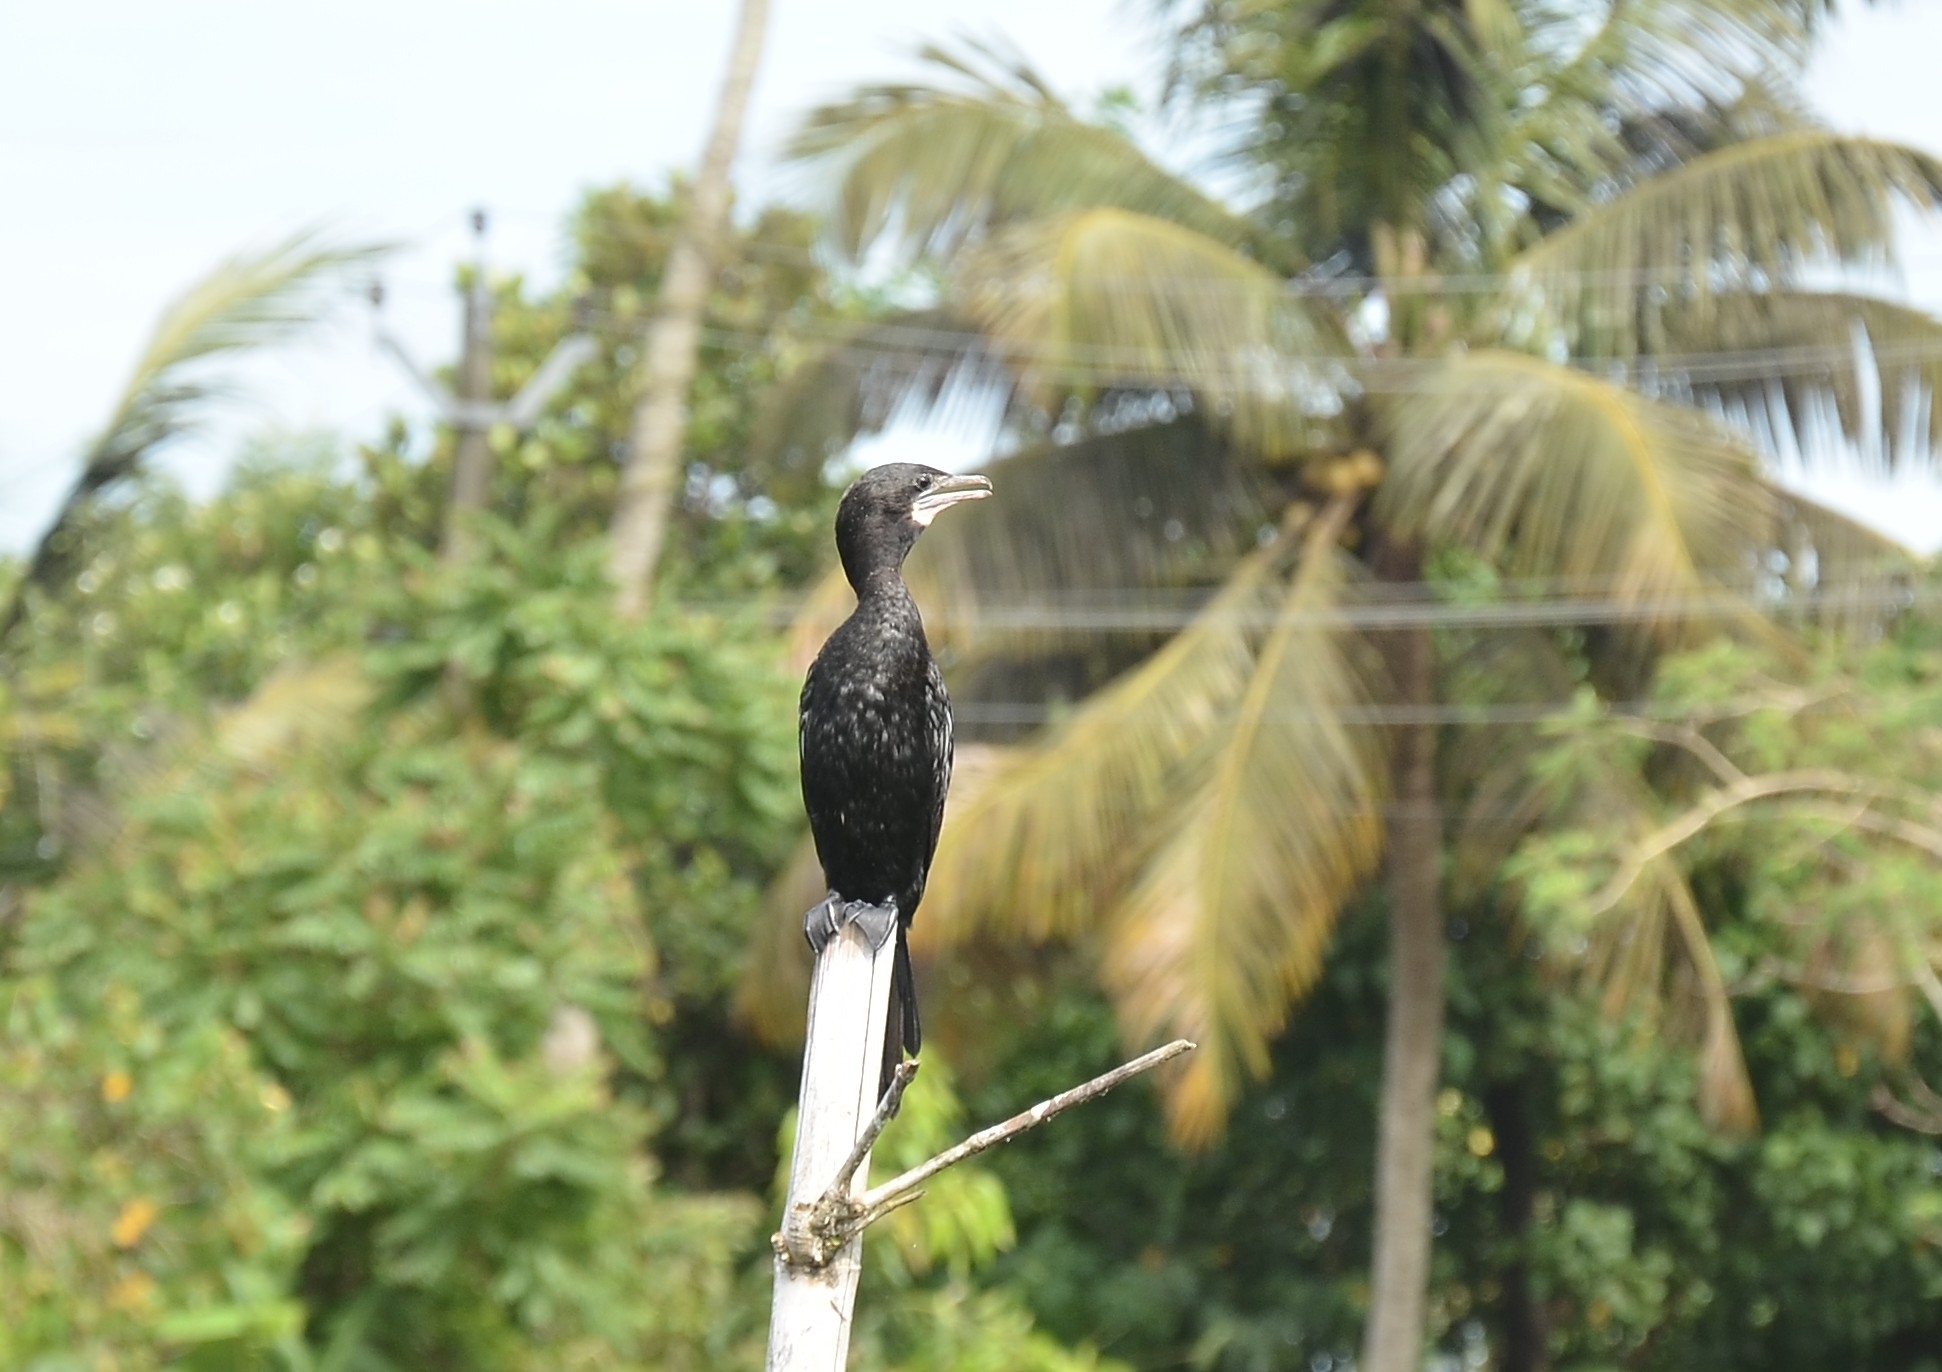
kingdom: Animalia
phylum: Chordata
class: Aves
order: Suliformes
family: Phalacrocoracidae
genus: Microcarbo
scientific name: Microcarbo niger
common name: Little cormorant
